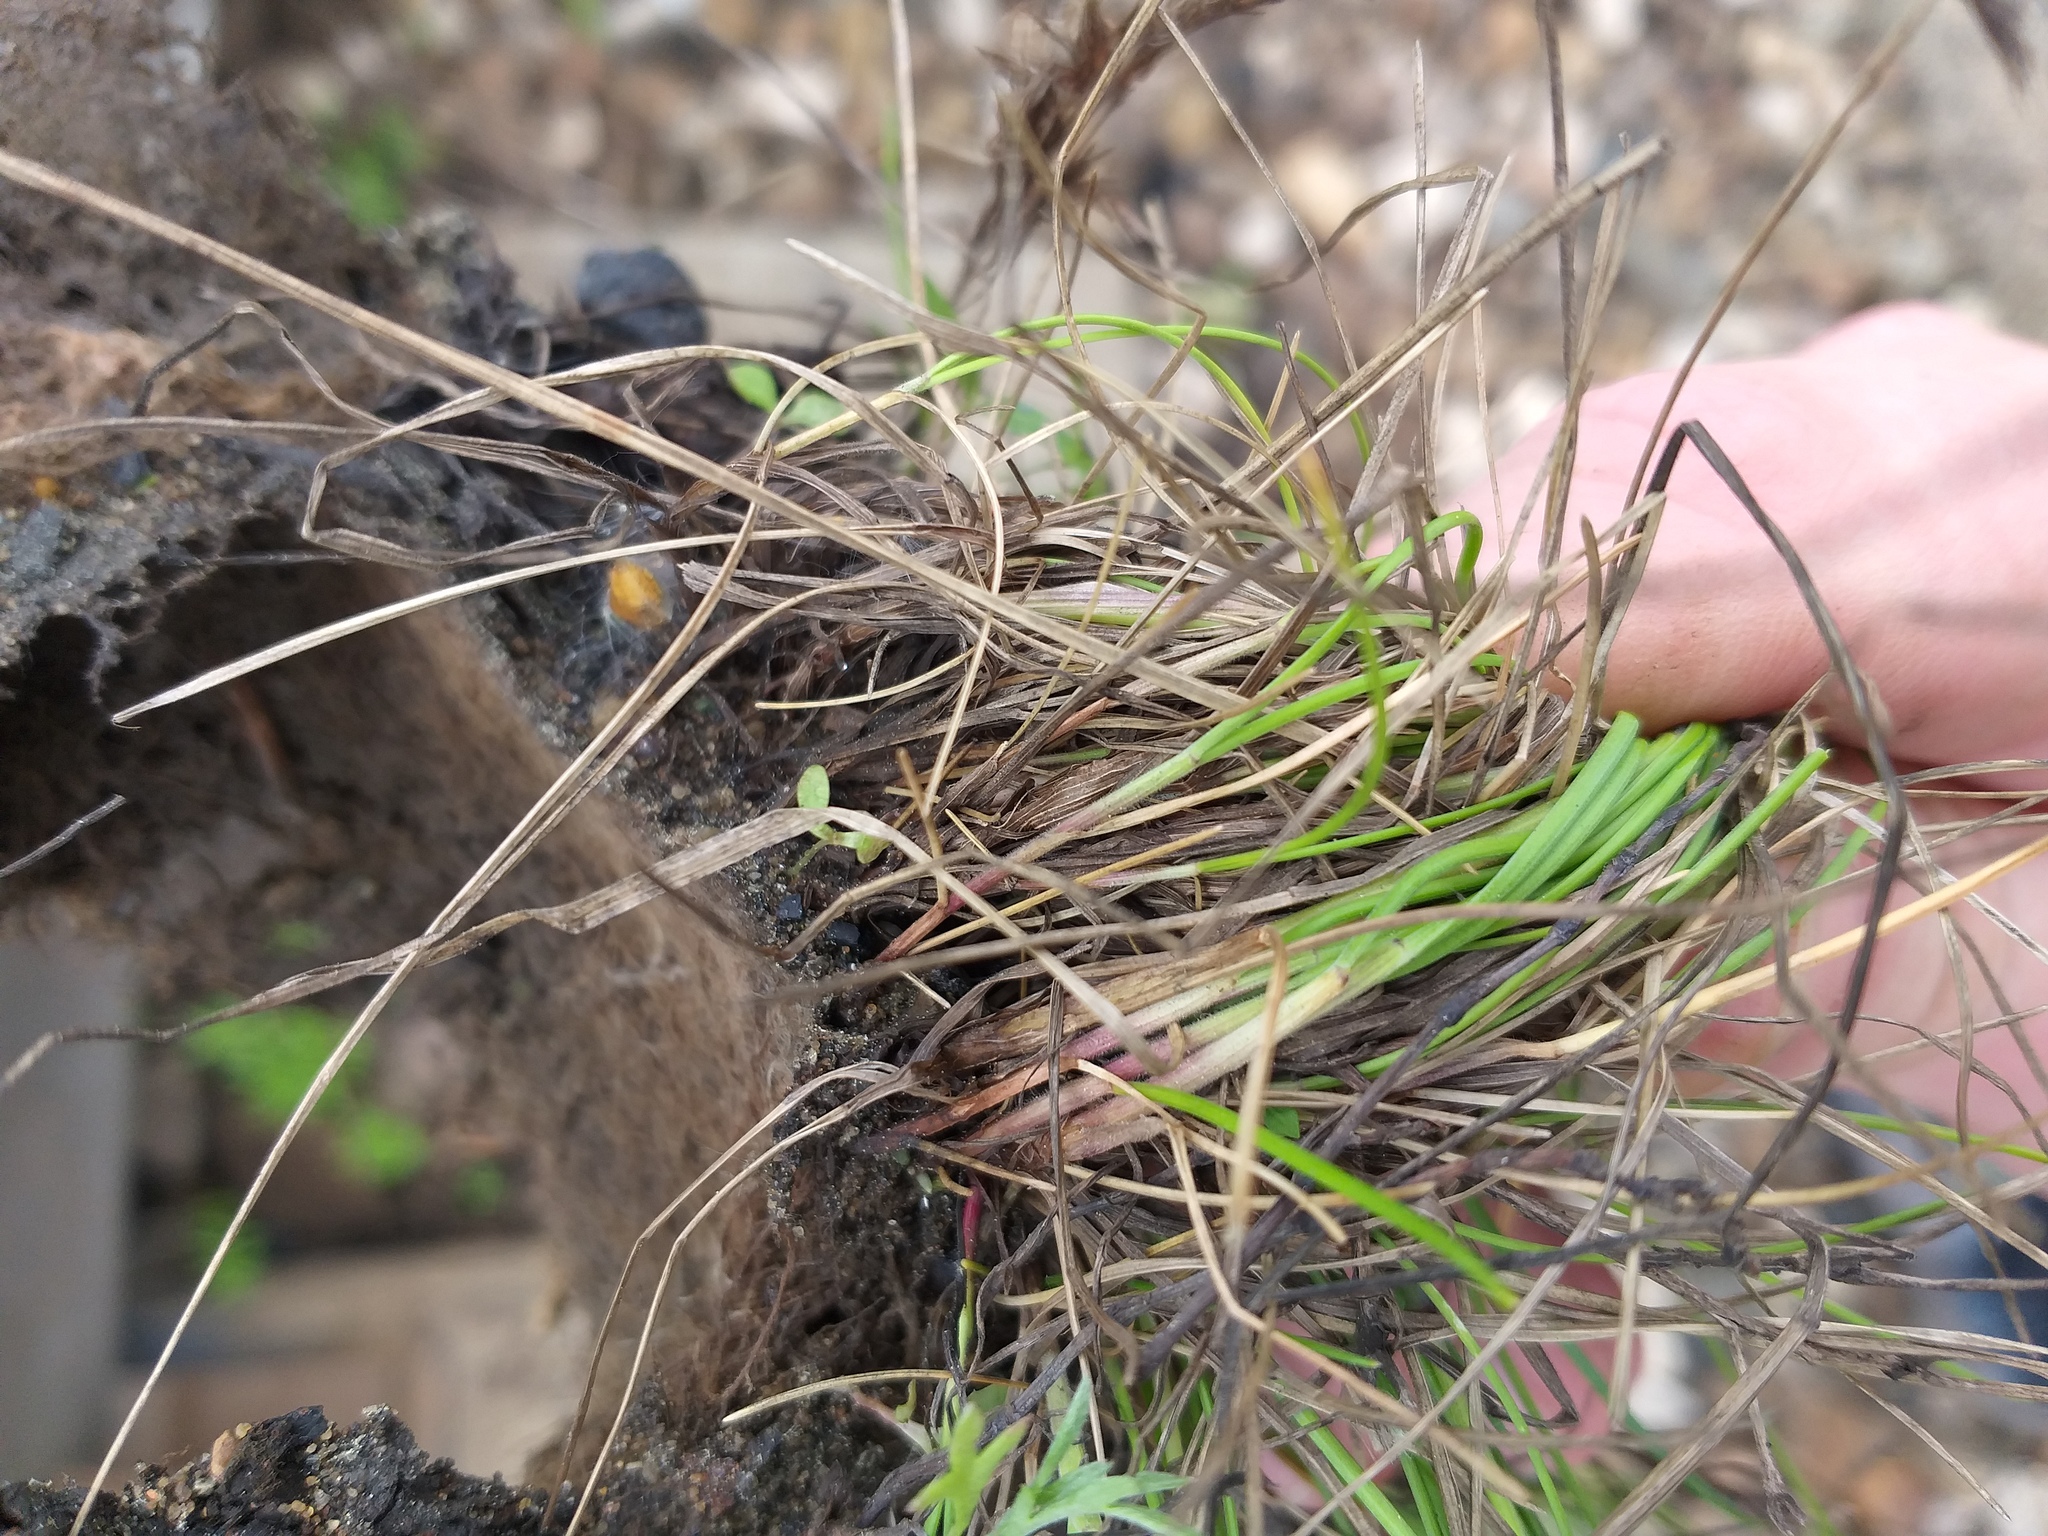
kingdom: Plantae
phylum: Tracheophyta
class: Liliopsida
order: Poales
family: Poaceae
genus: Festuca
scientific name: Festuca rubra
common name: Red fescue
